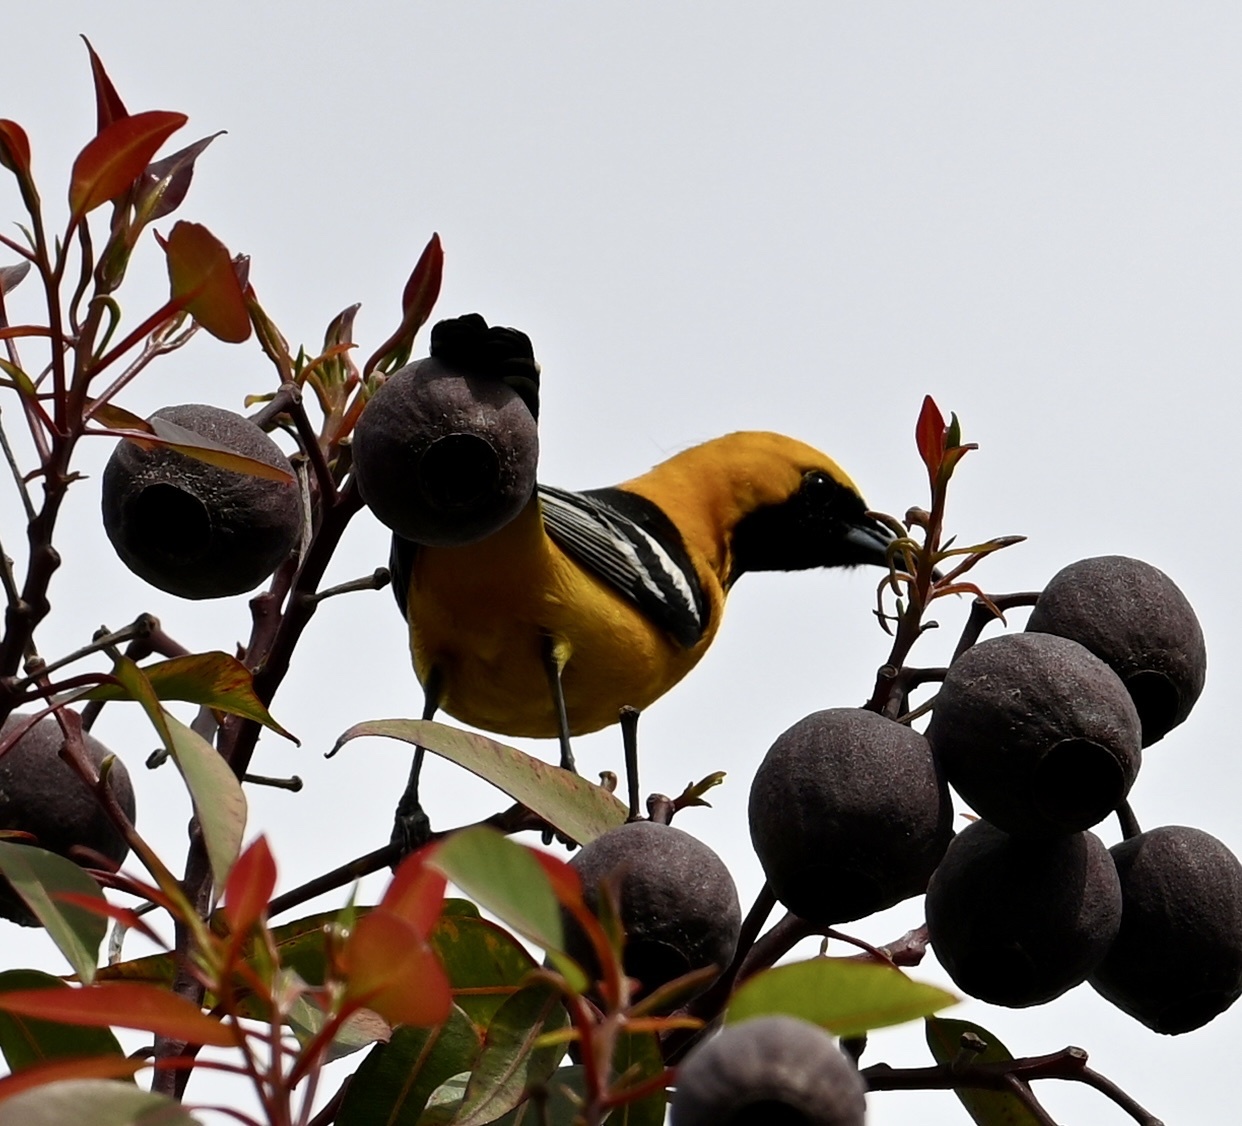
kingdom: Animalia
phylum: Chordata
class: Aves
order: Passeriformes
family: Icteridae
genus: Icterus
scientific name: Icterus cucullatus
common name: Hooded oriole
